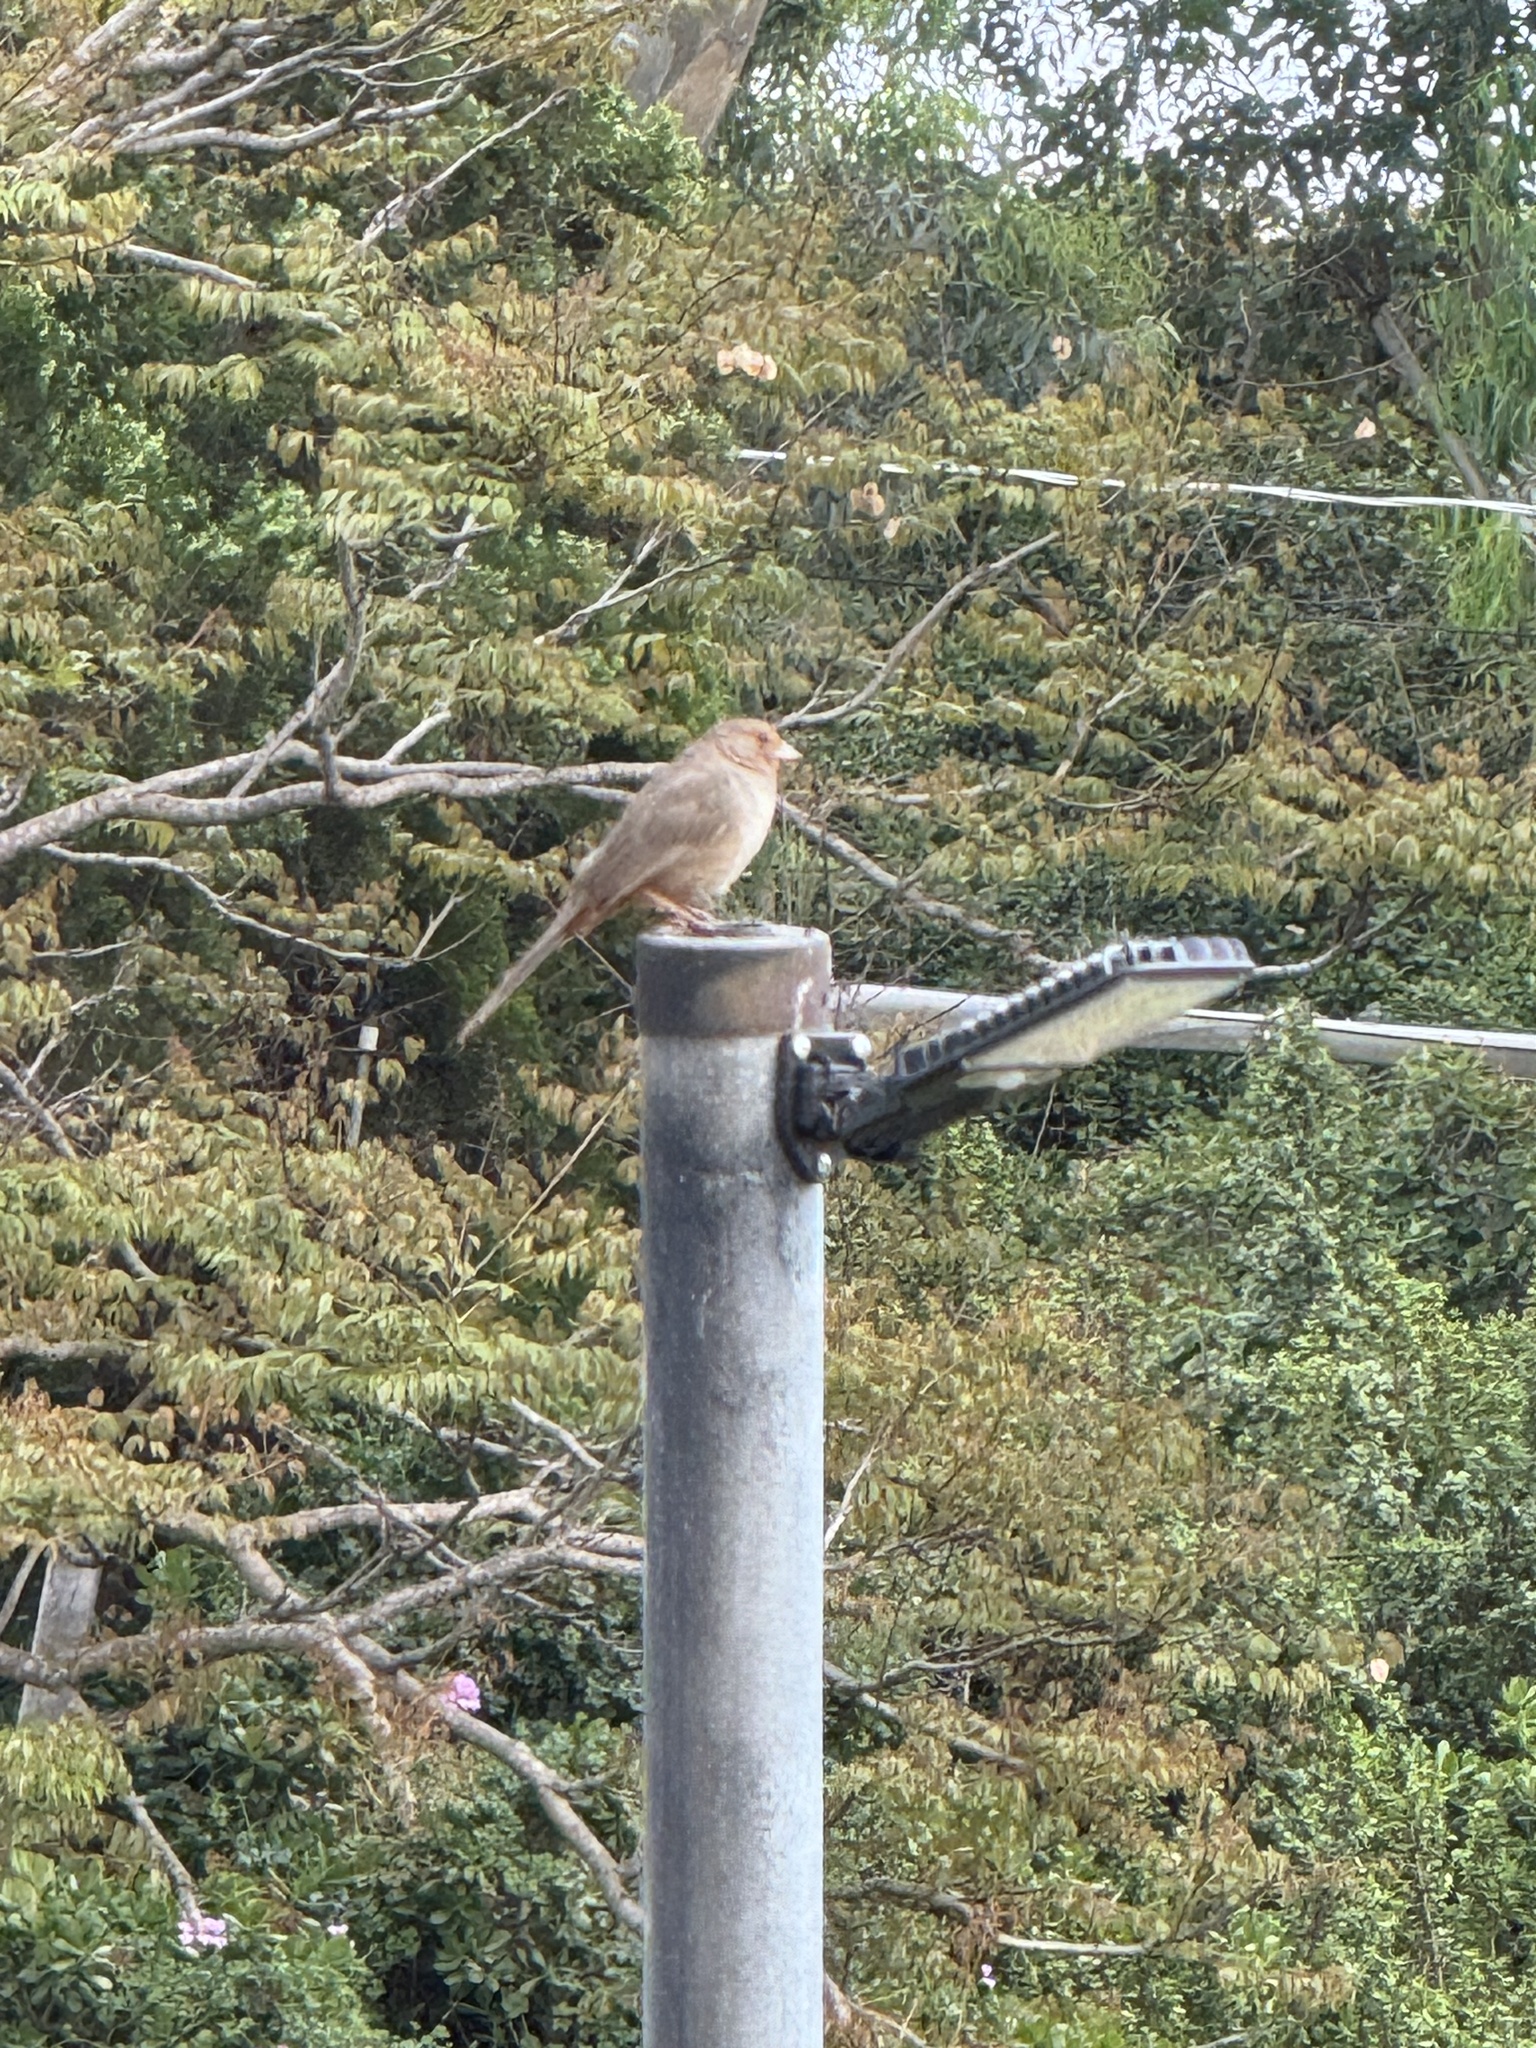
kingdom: Animalia
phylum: Chordata
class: Aves
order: Passeriformes
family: Passerellidae
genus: Melozone
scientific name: Melozone crissalis
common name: California towhee
